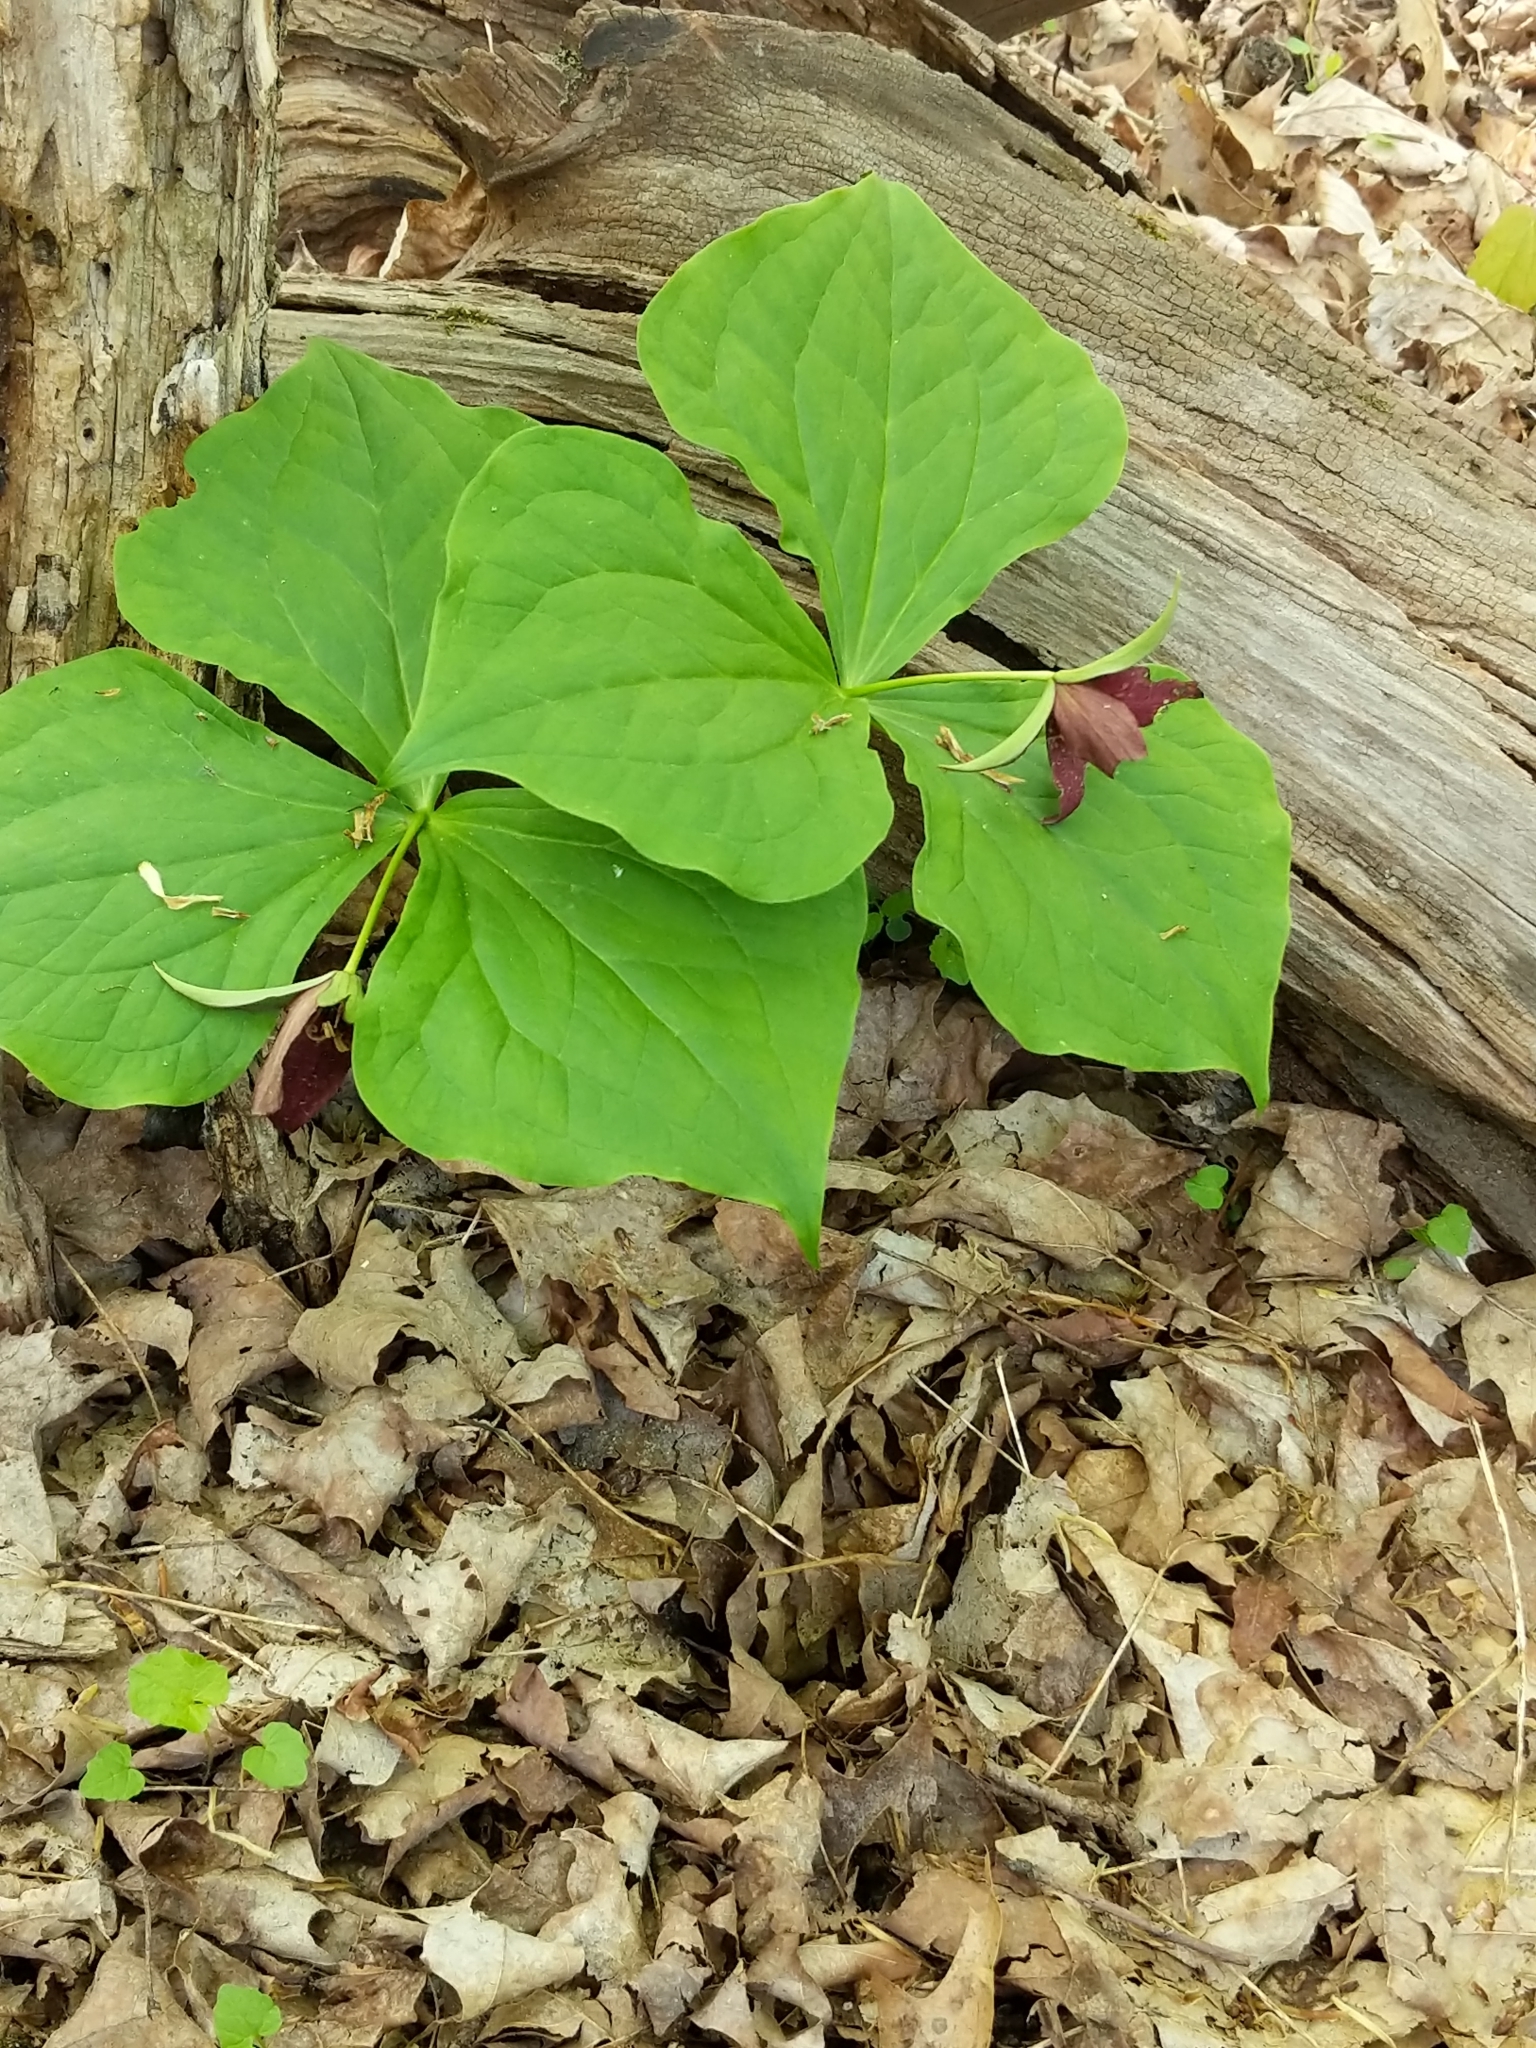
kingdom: Plantae
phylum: Tracheophyta
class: Liliopsida
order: Liliales
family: Melanthiaceae
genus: Trillium
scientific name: Trillium erectum
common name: Purple trillium
